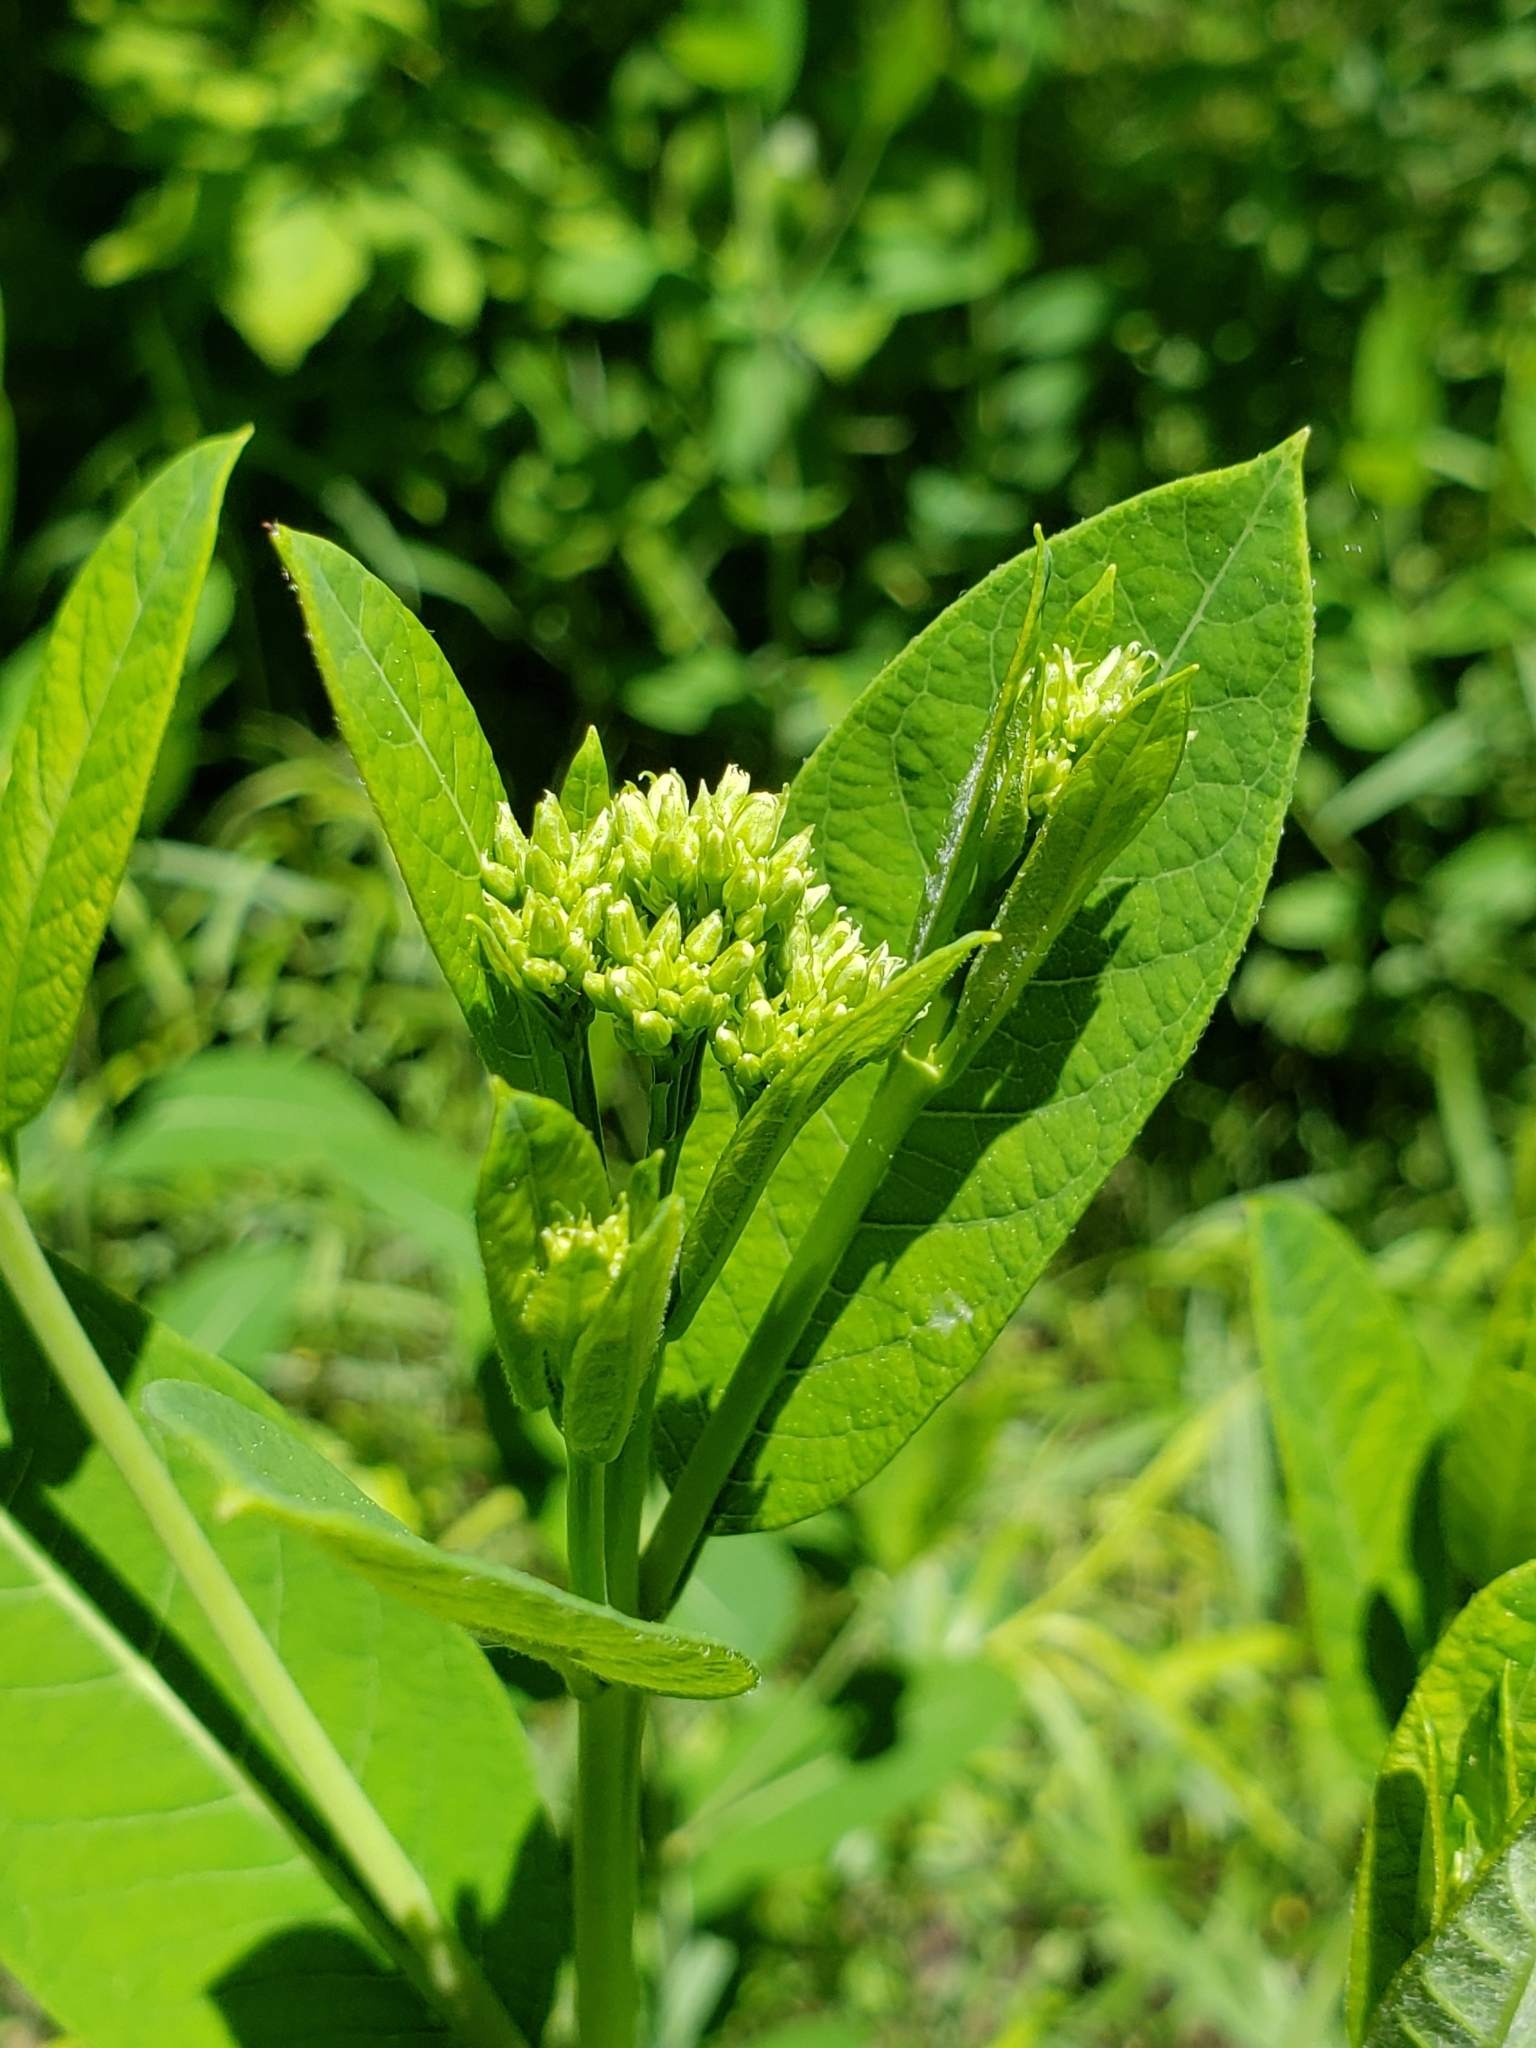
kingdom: Plantae
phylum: Tracheophyta
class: Magnoliopsida
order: Gentianales
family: Apocynaceae
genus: Asclepias
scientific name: Asclepias syriaca
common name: Common milkweed
